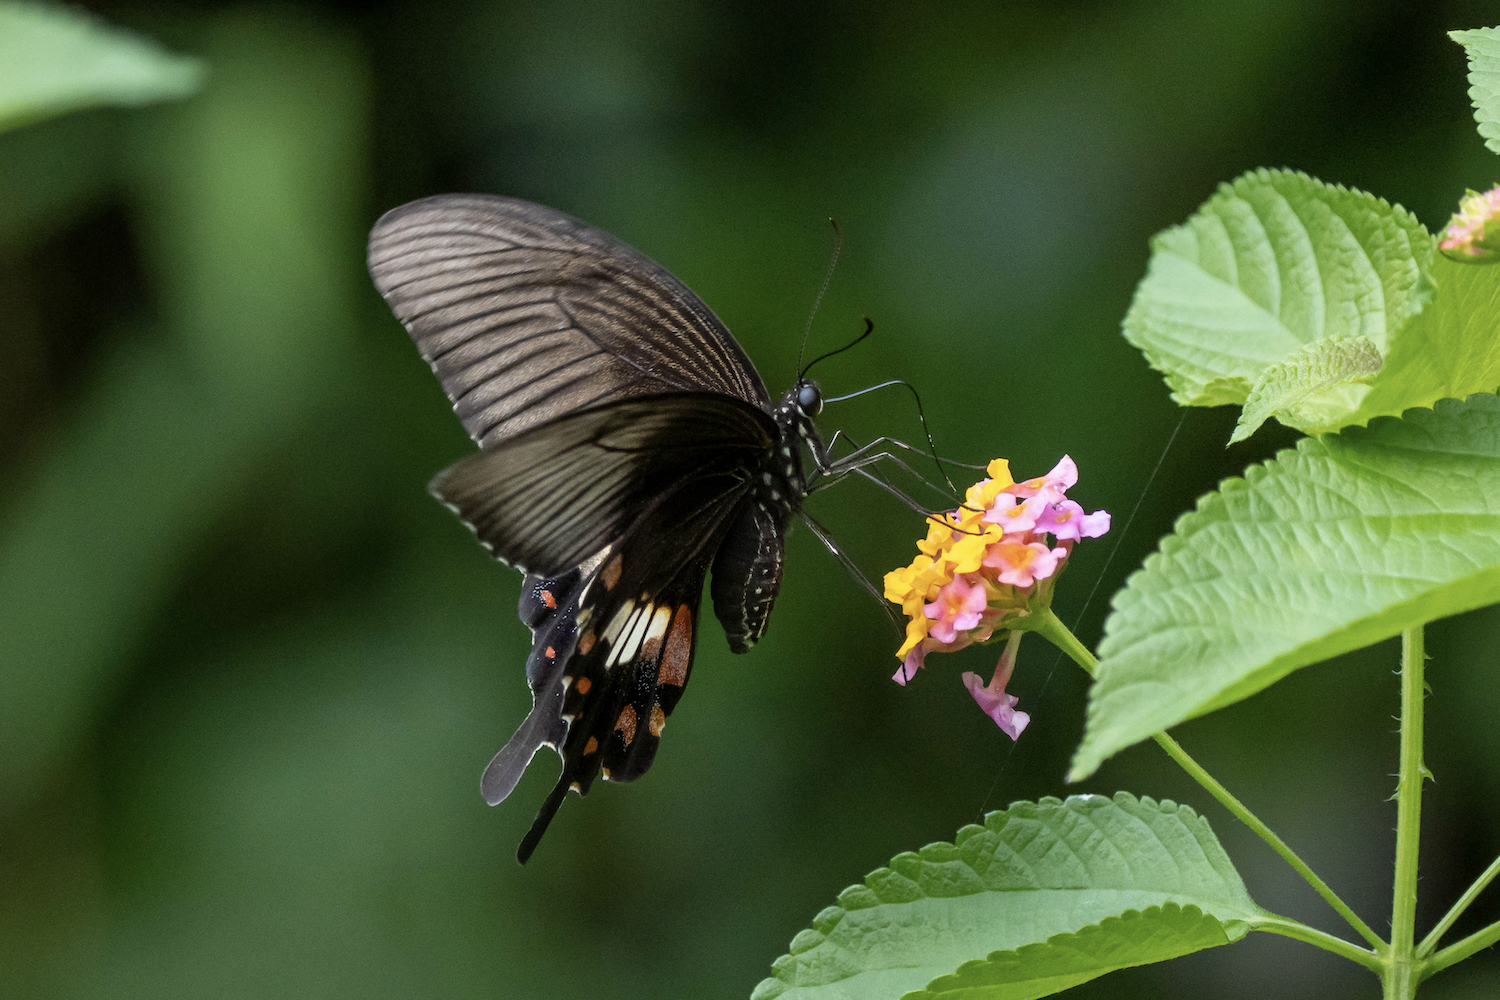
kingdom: Animalia
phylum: Arthropoda
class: Insecta
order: Lepidoptera
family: Papilionidae
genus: Papilio
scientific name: Papilio polytes
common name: Common mormon
